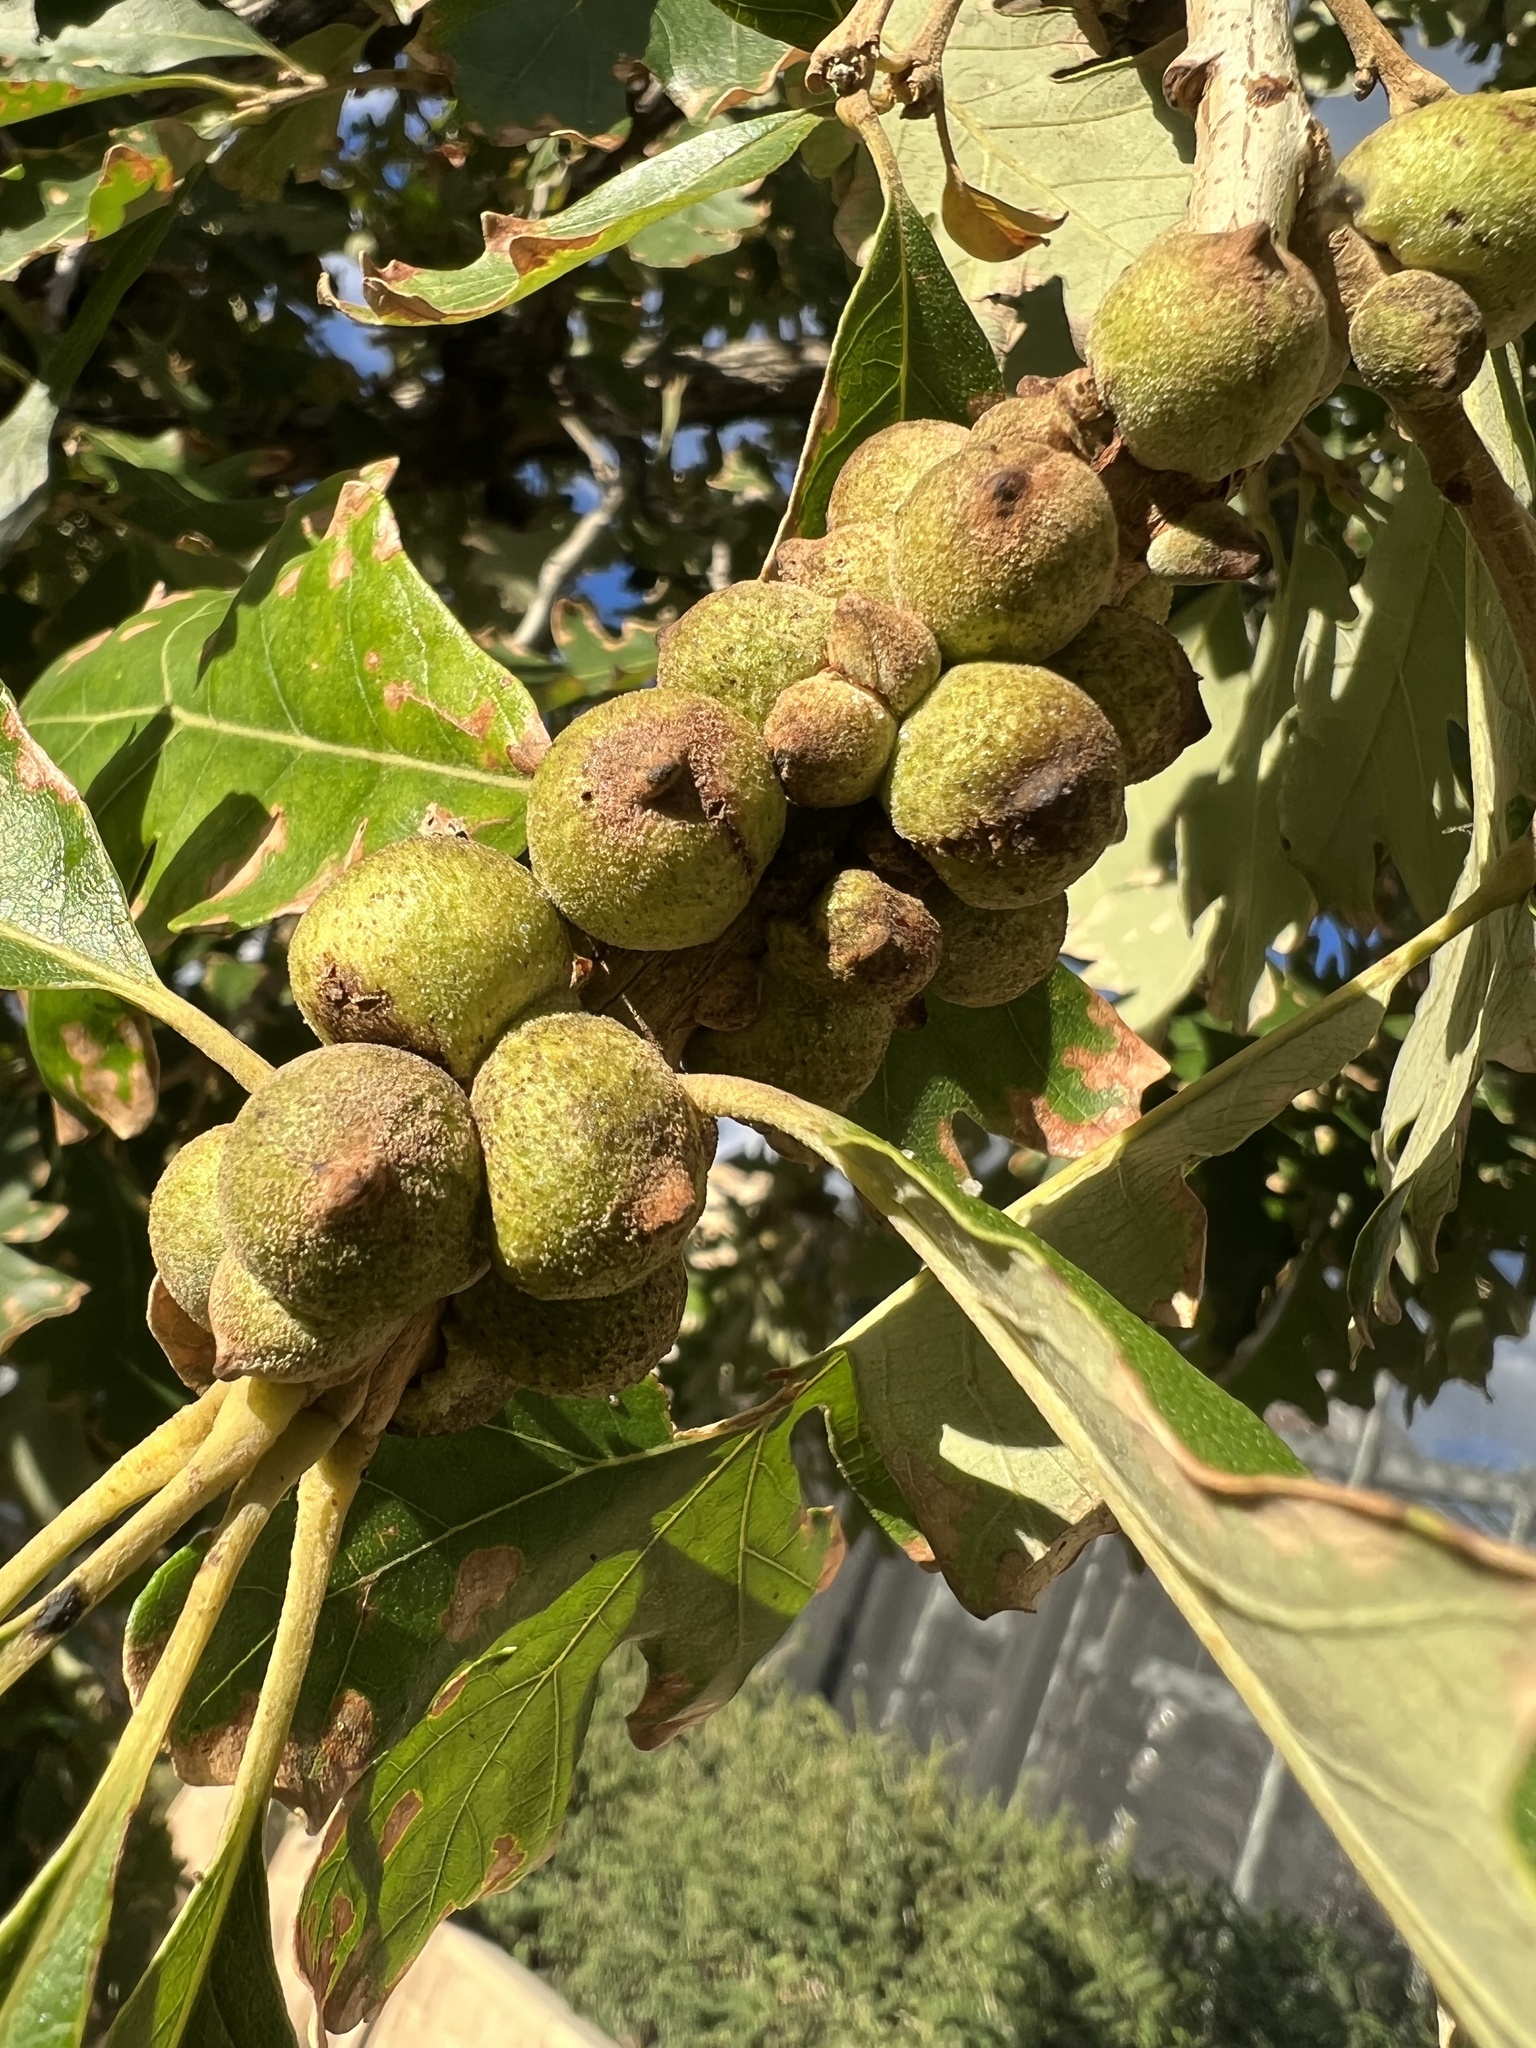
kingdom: Animalia
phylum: Arthropoda
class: Insecta
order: Hymenoptera
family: Cynipidae
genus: Disholcaspis
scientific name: Disholcaspis
